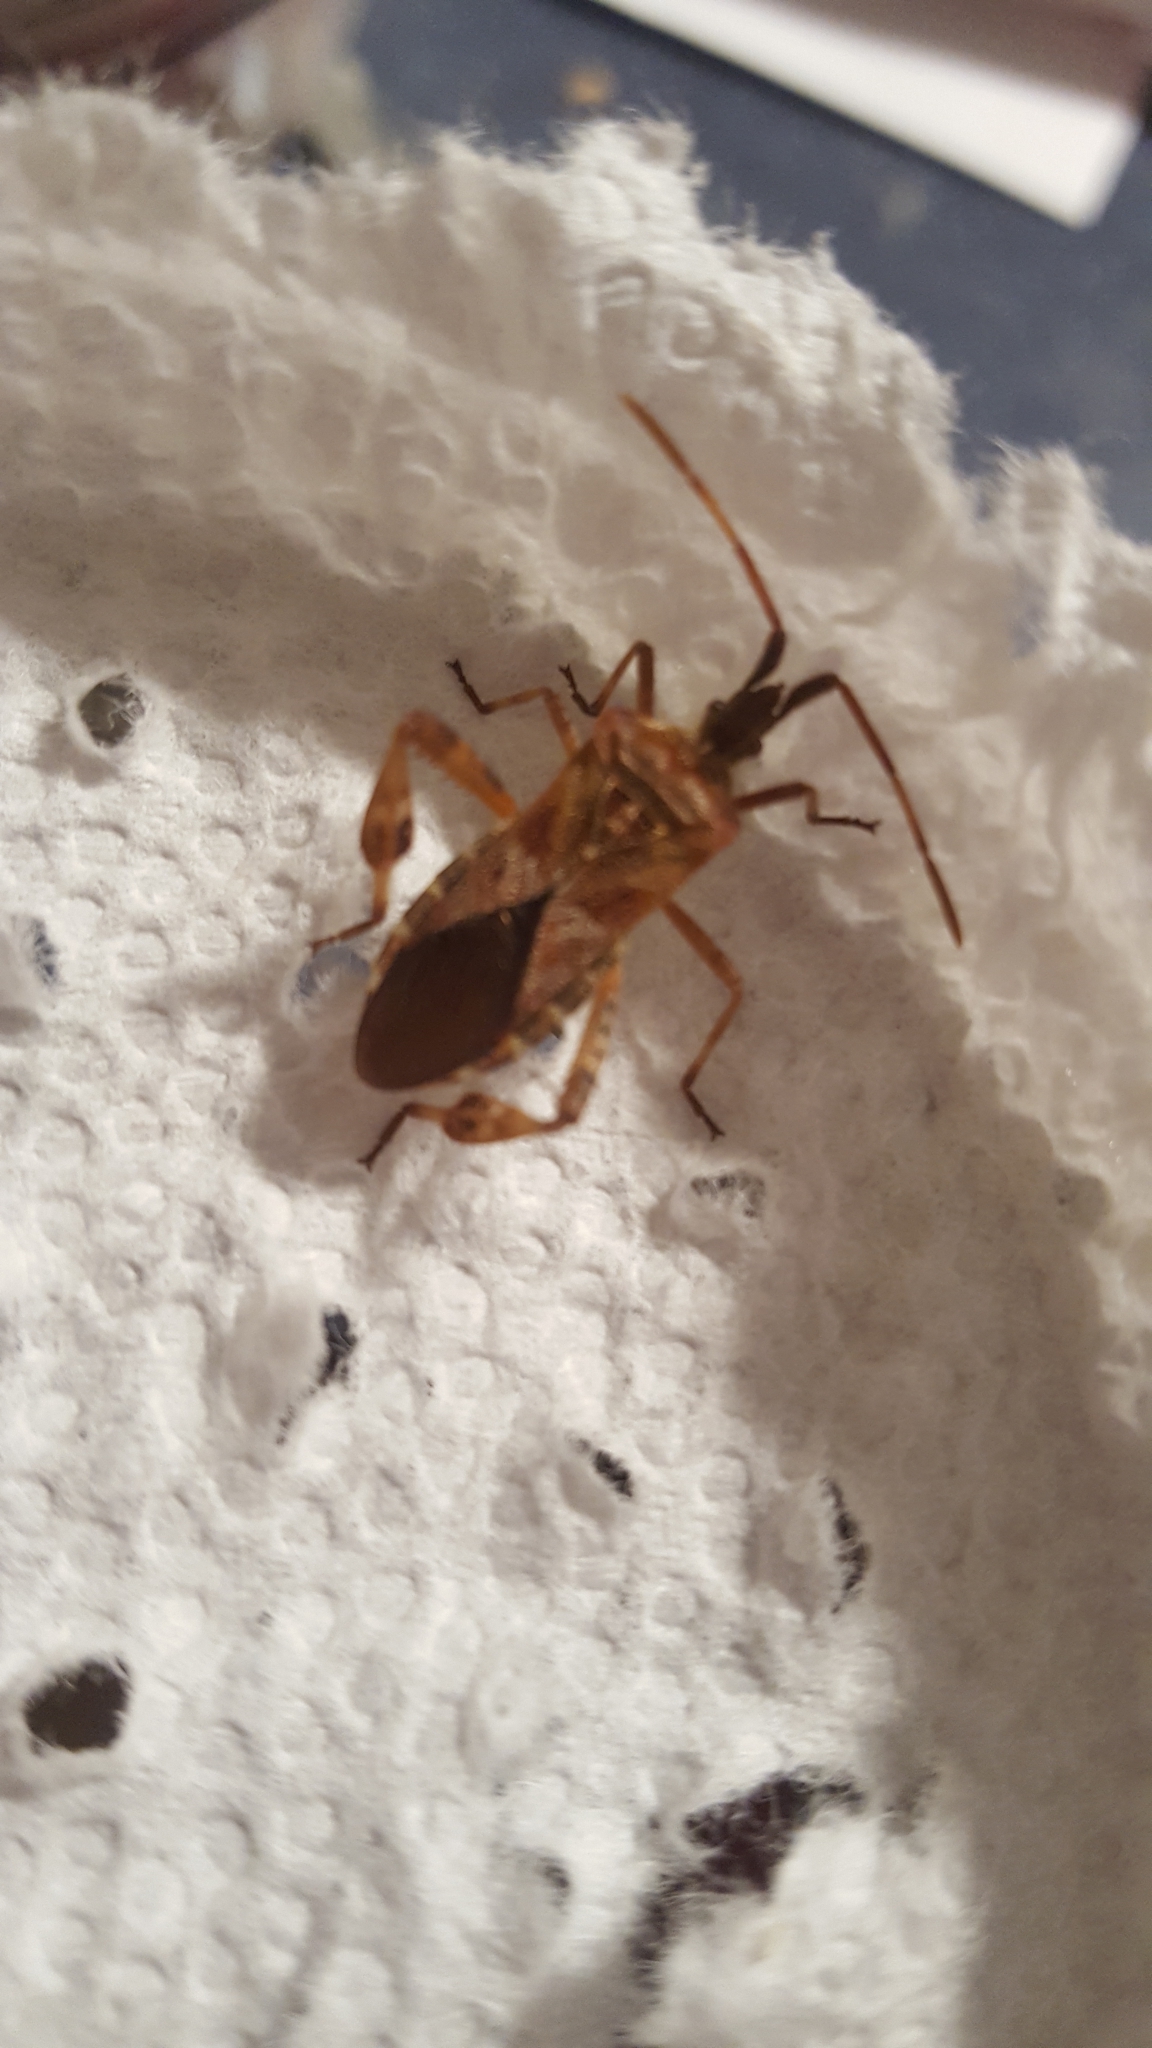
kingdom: Animalia
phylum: Arthropoda
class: Insecta
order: Hemiptera
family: Coreidae
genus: Leptoglossus
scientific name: Leptoglossus occidentalis
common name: Western conifer-seed bug
